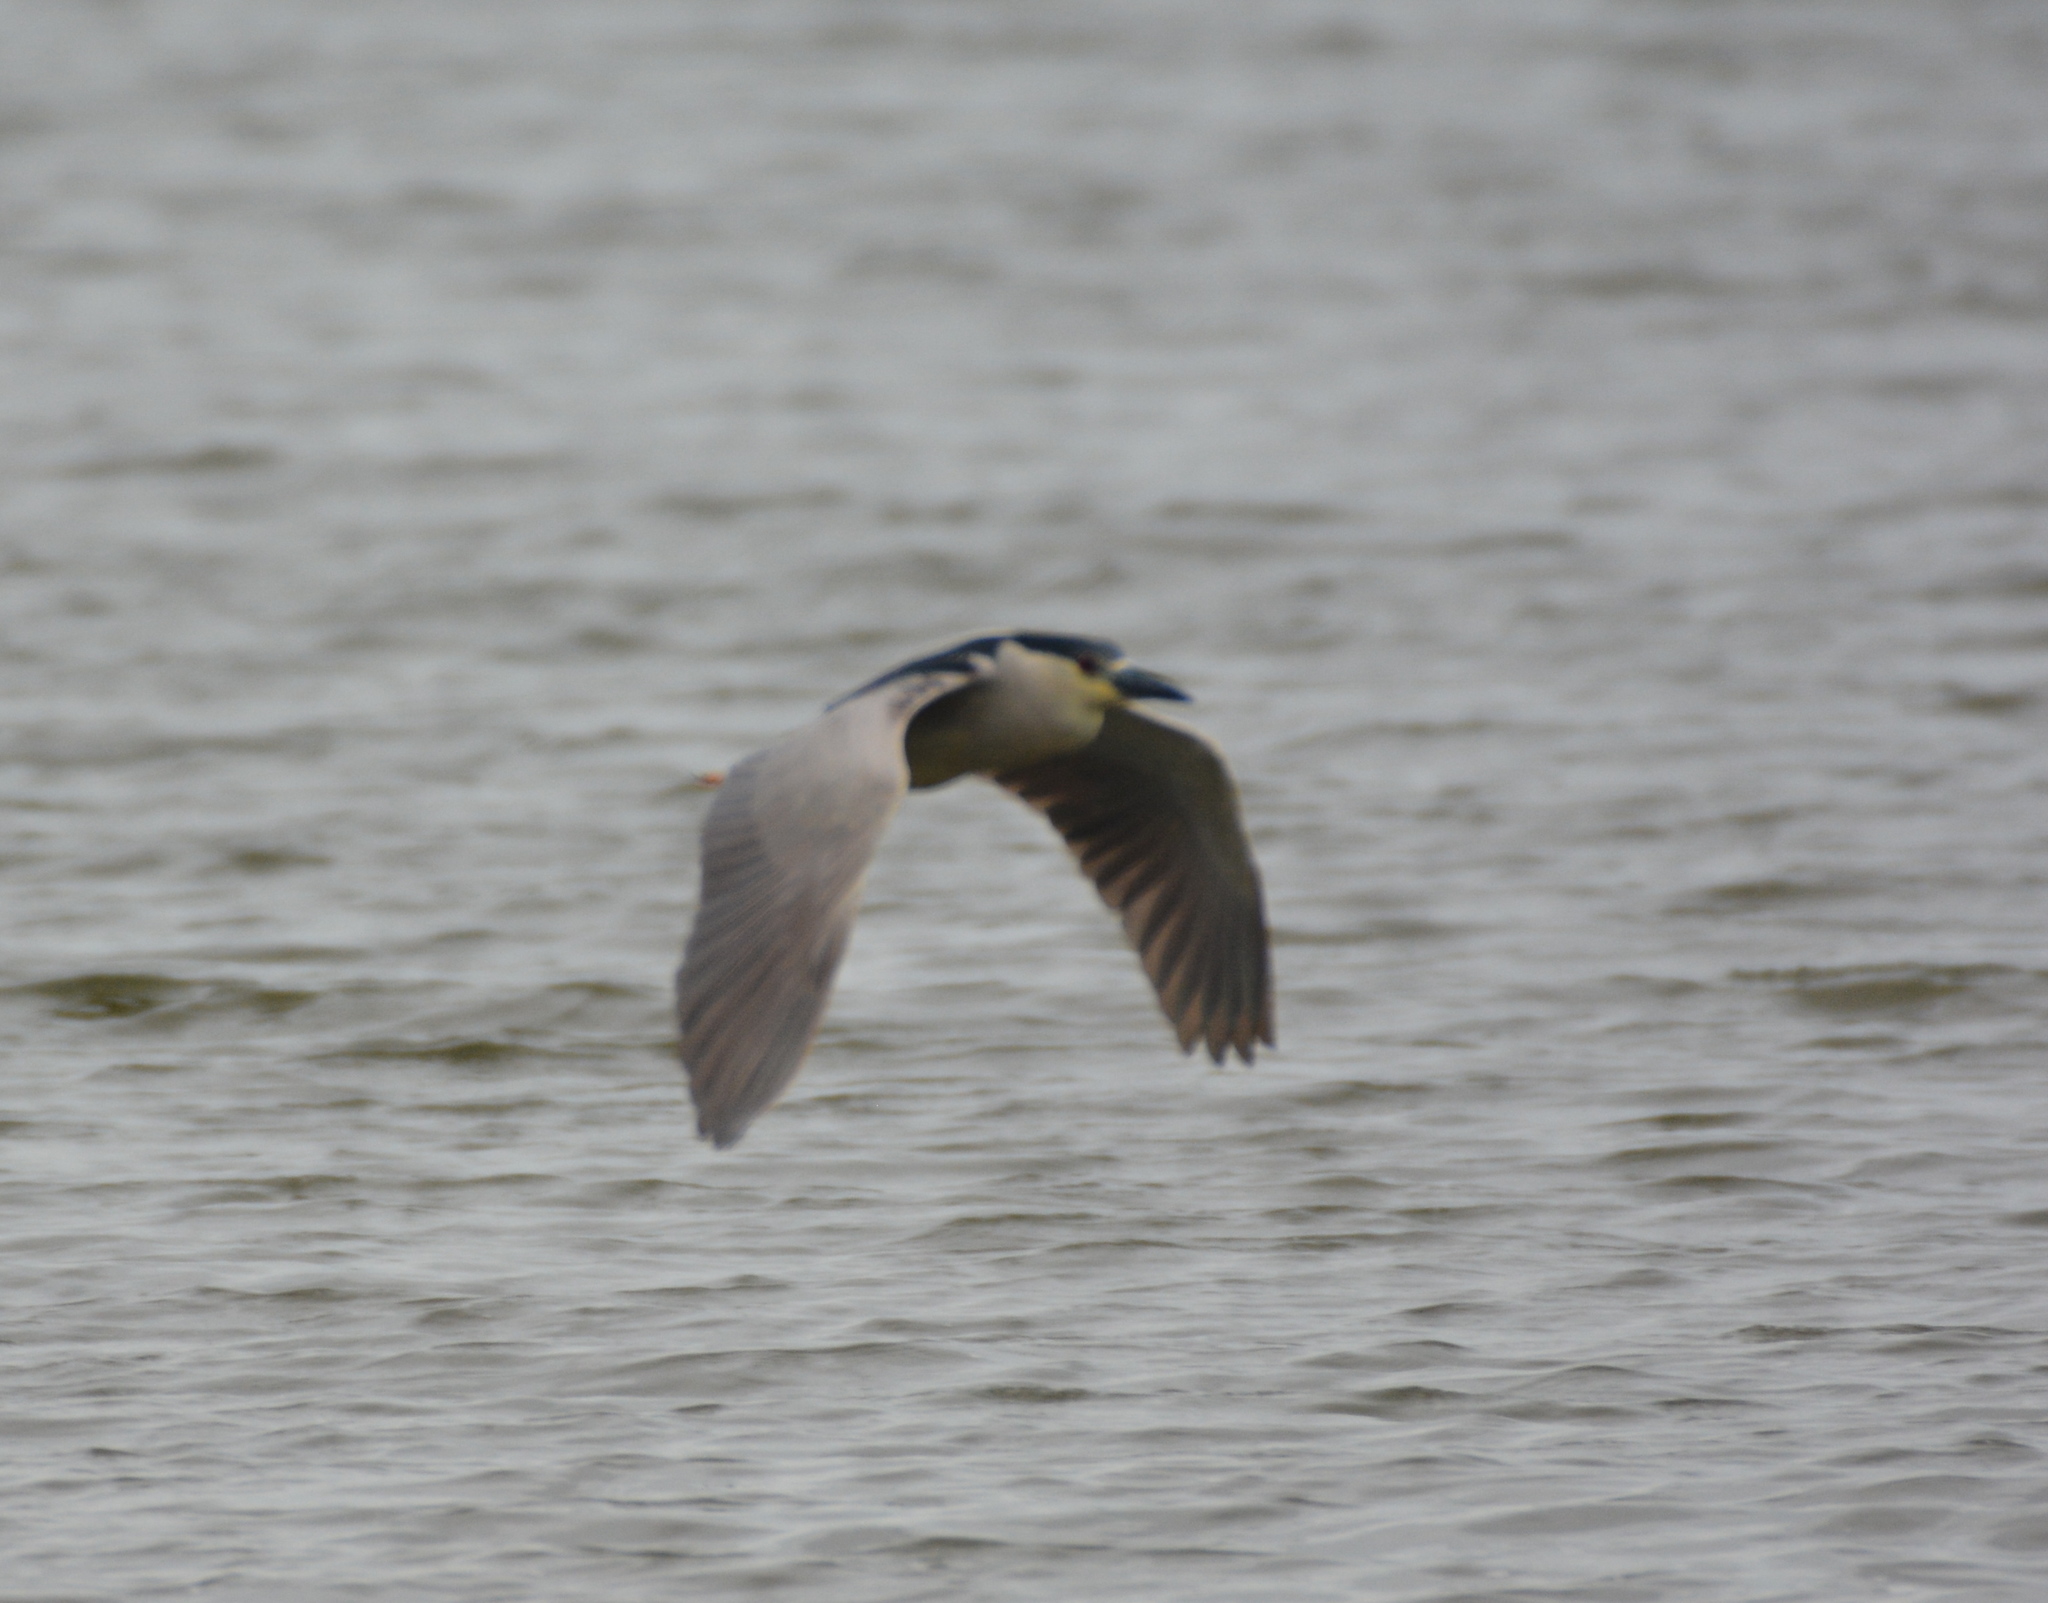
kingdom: Animalia
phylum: Chordata
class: Aves
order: Pelecaniformes
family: Ardeidae
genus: Nycticorax
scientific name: Nycticorax nycticorax
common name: Black-crowned night heron
